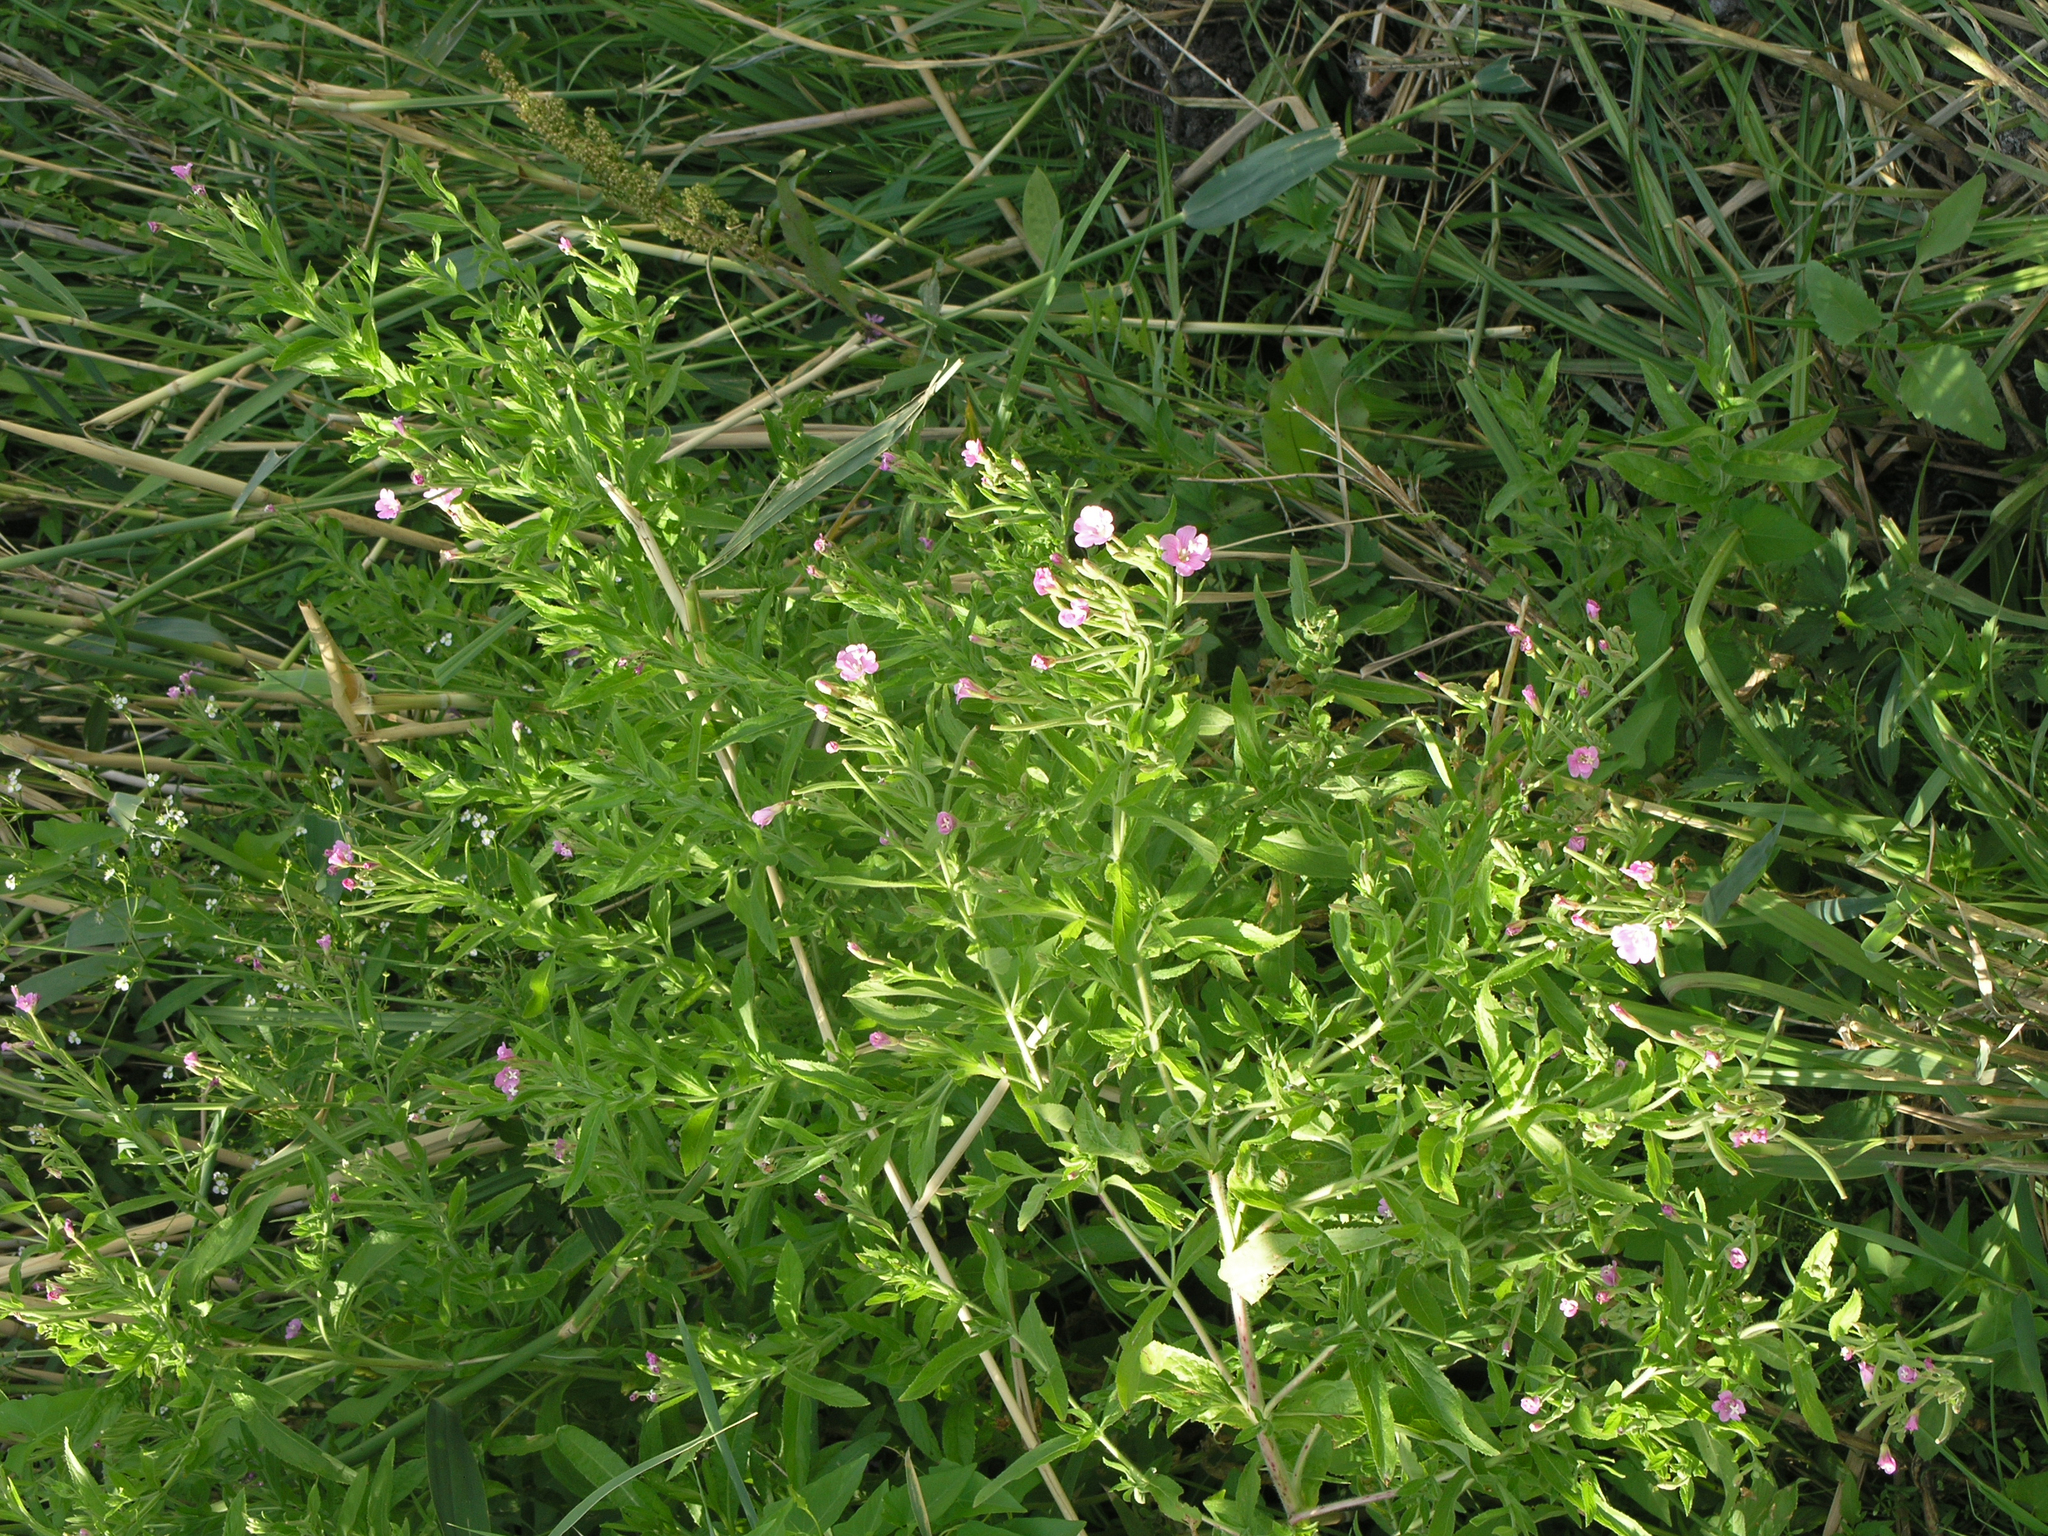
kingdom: Plantae
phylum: Tracheophyta
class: Magnoliopsida
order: Myrtales
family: Onagraceae
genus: Epilobium
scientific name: Epilobium hirsutum
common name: Great willowherb
